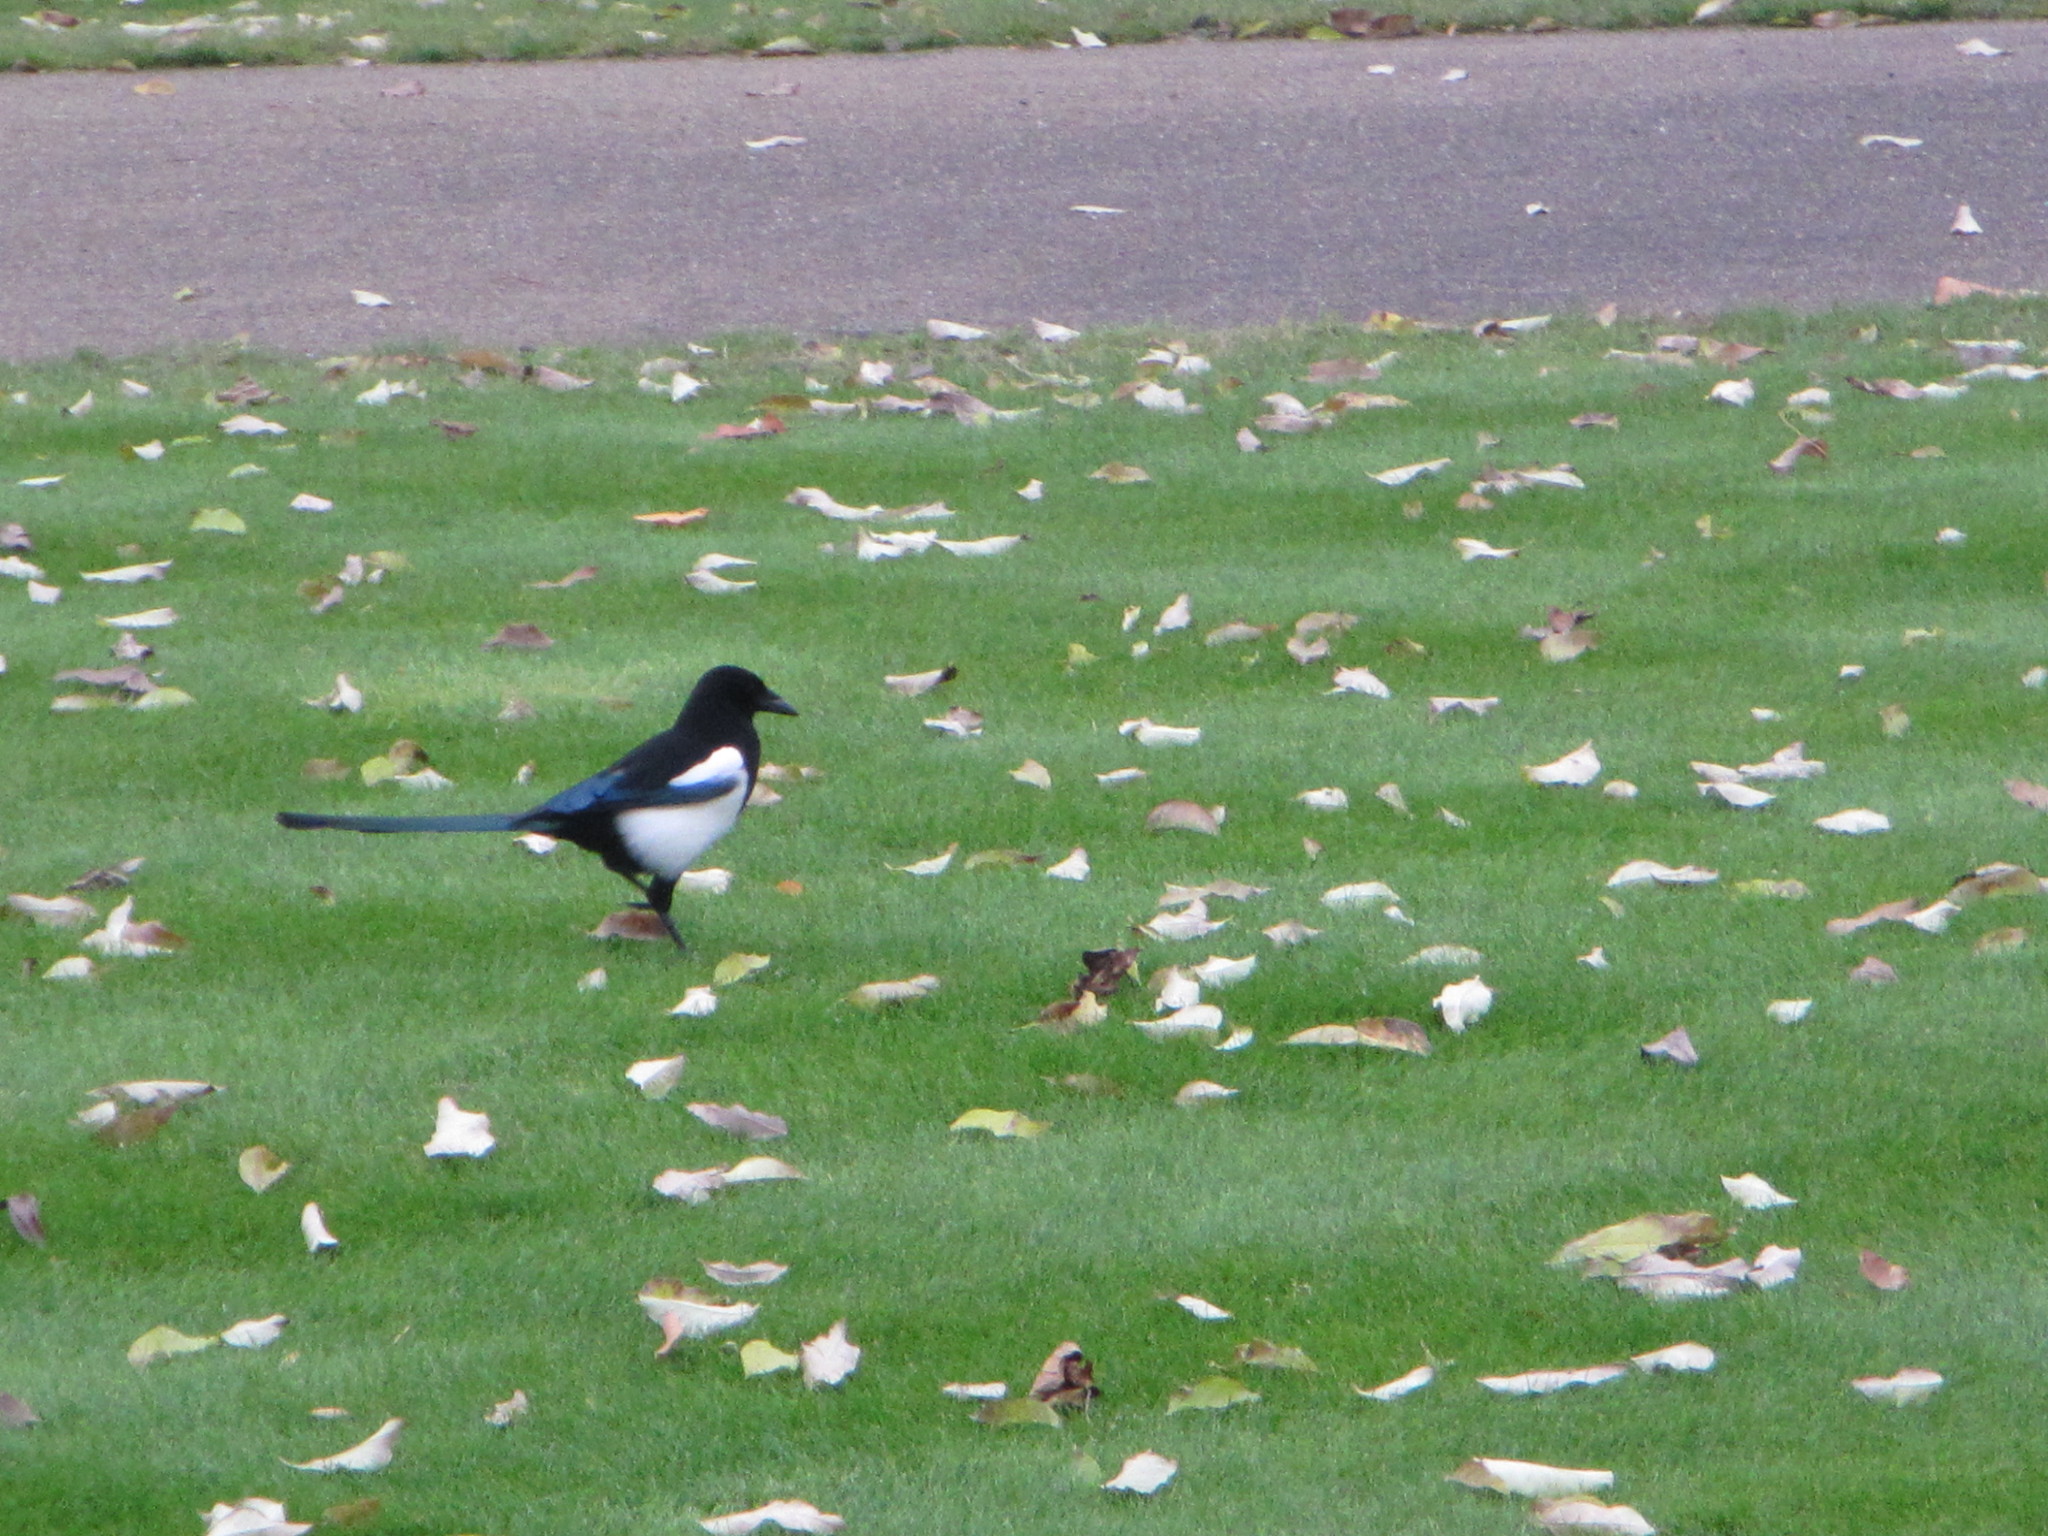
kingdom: Animalia
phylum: Chordata
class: Aves
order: Passeriformes
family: Corvidae
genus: Pica
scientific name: Pica pica
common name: Eurasian magpie
